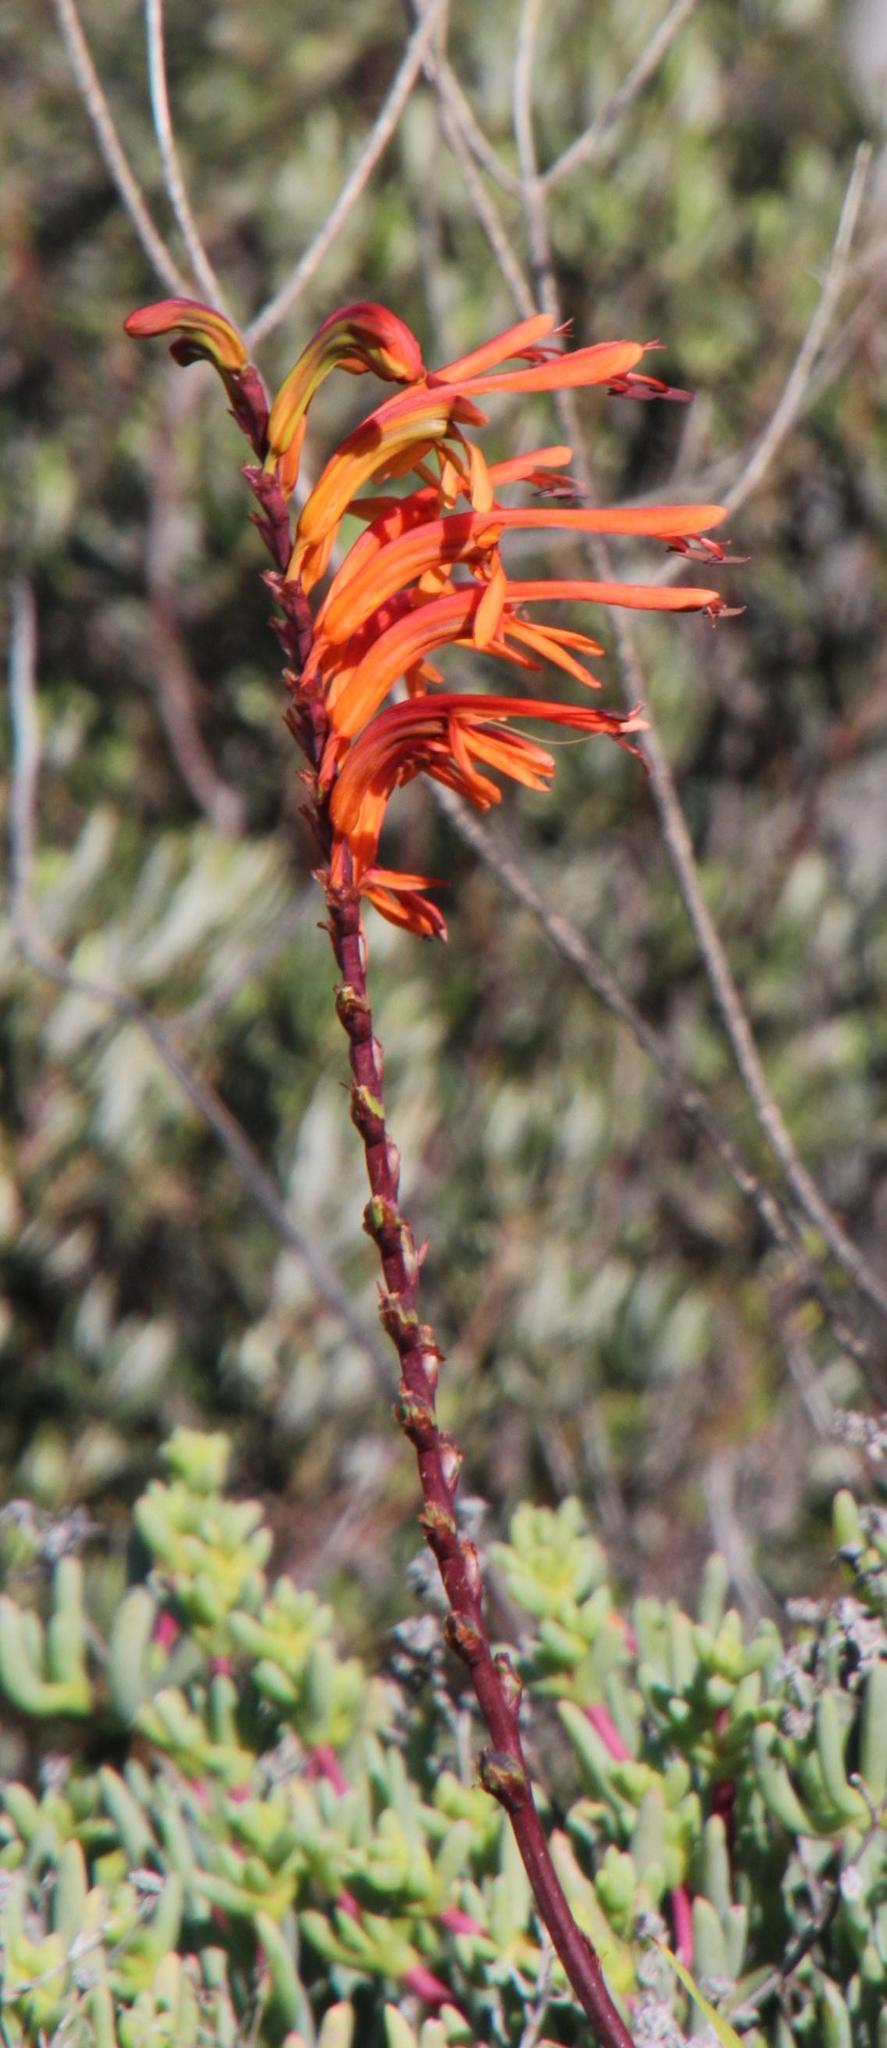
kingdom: Plantae
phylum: Tracheophyta
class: Liliopsida
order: Asparagales
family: Iridaceae
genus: Chasmanthe
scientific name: Chasmanthe aethiopica
